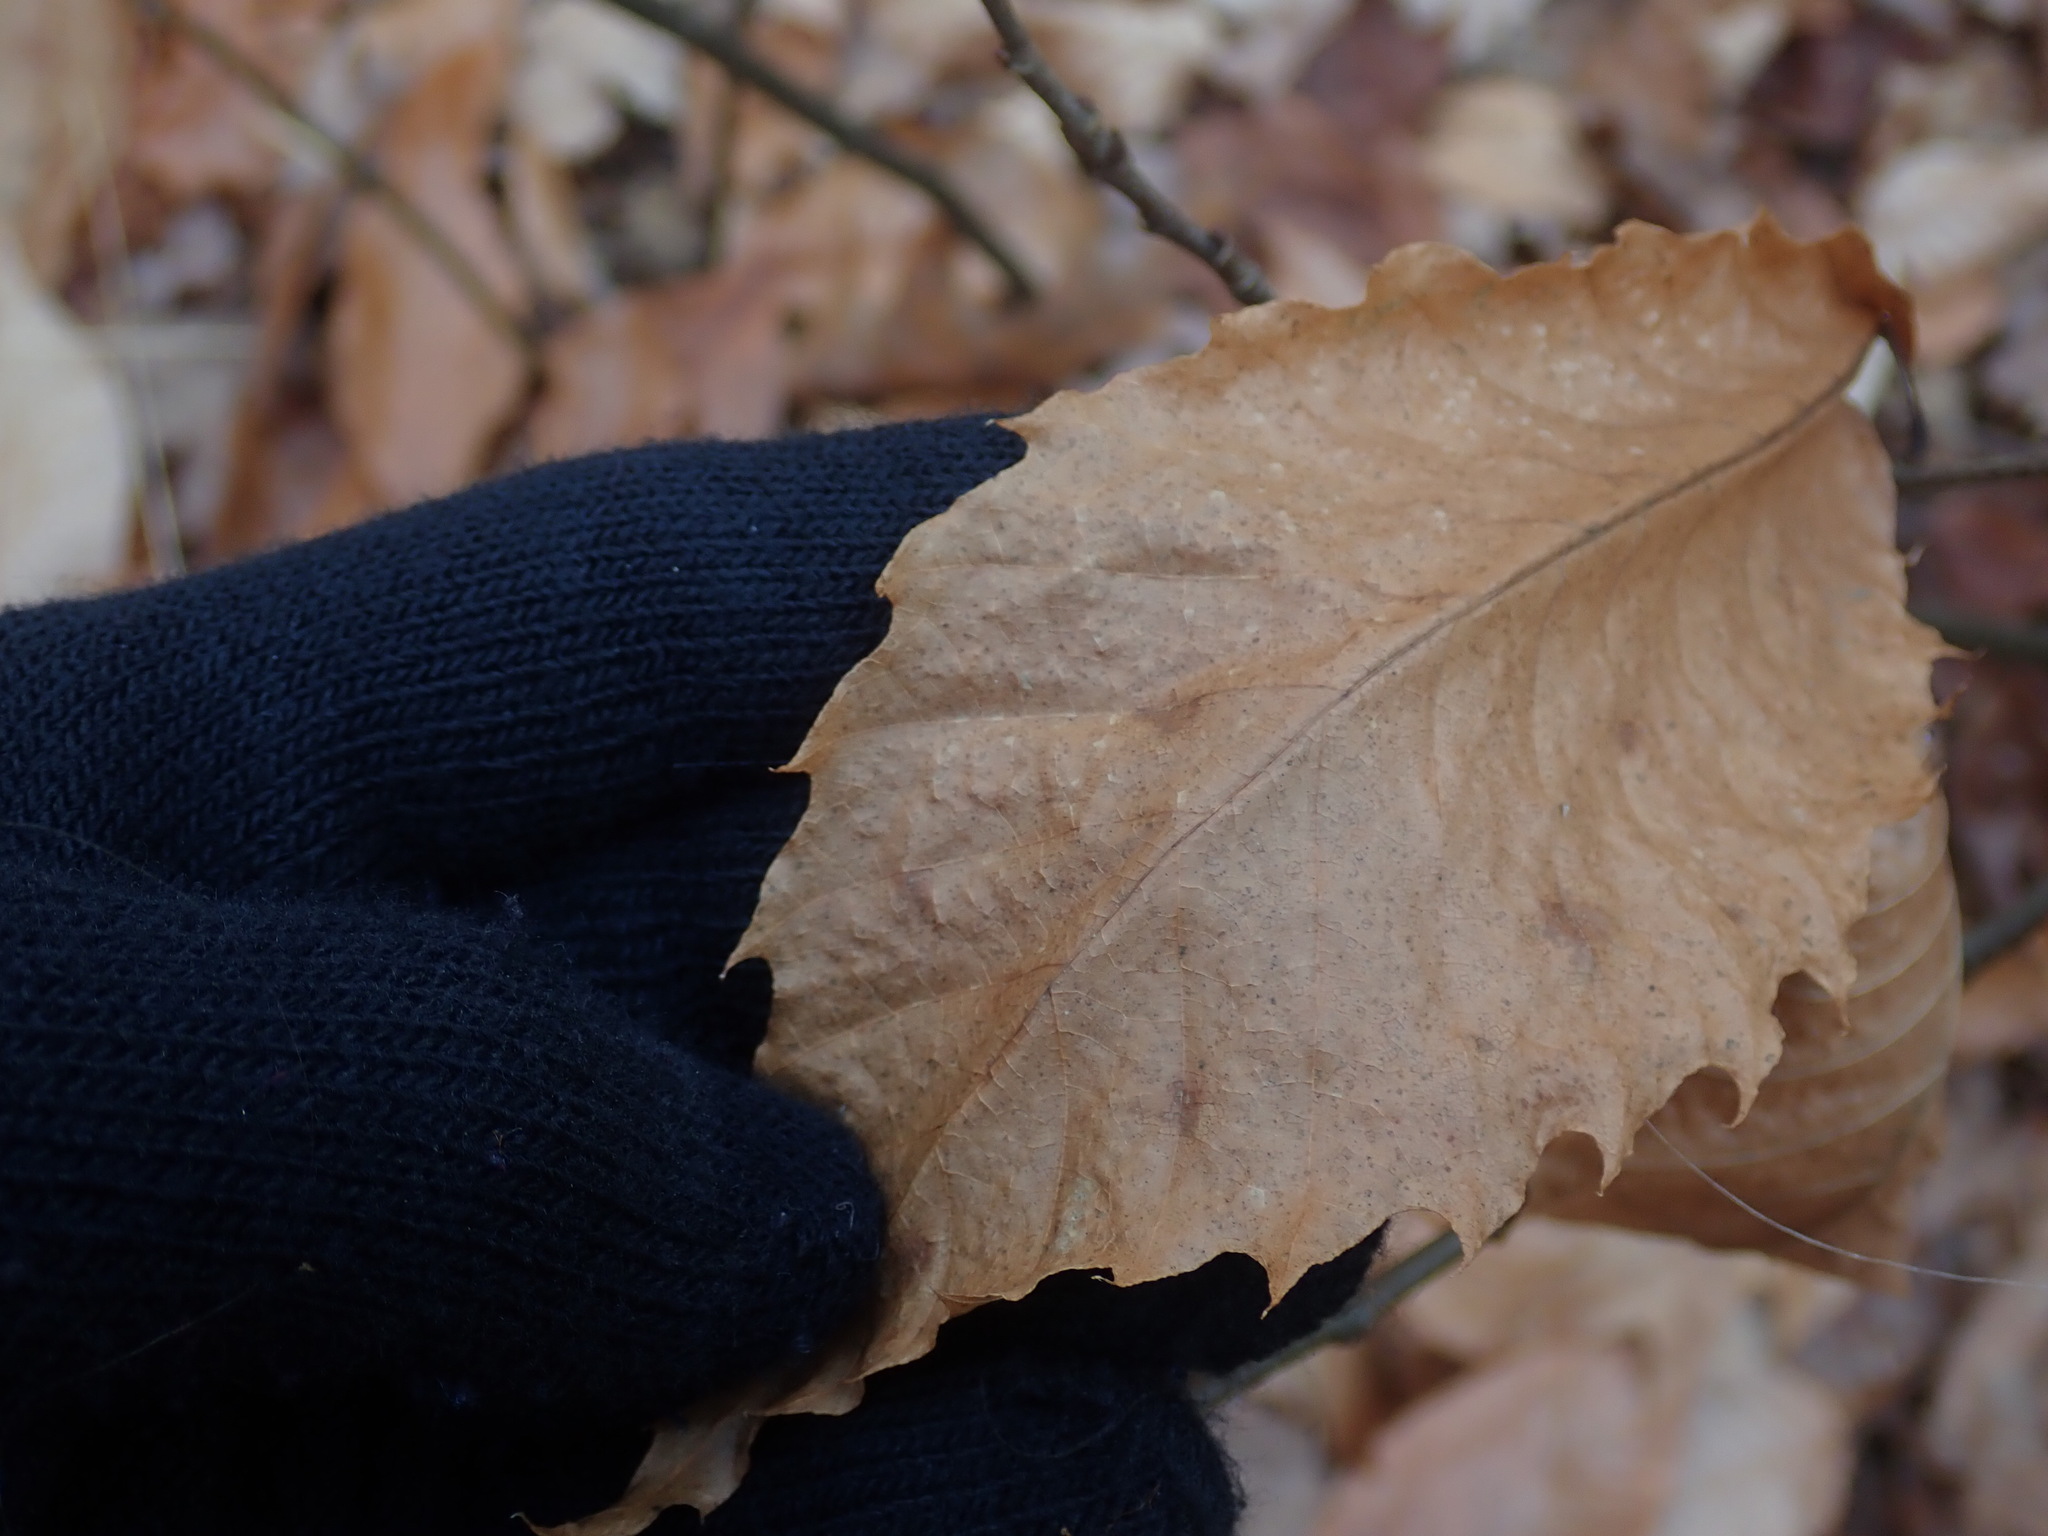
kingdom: Plantae
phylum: Tracheophyta
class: Magnoliopsida
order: Fagales
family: Fagaceae
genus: Castanea
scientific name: Castanea dentata
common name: American chestnut
